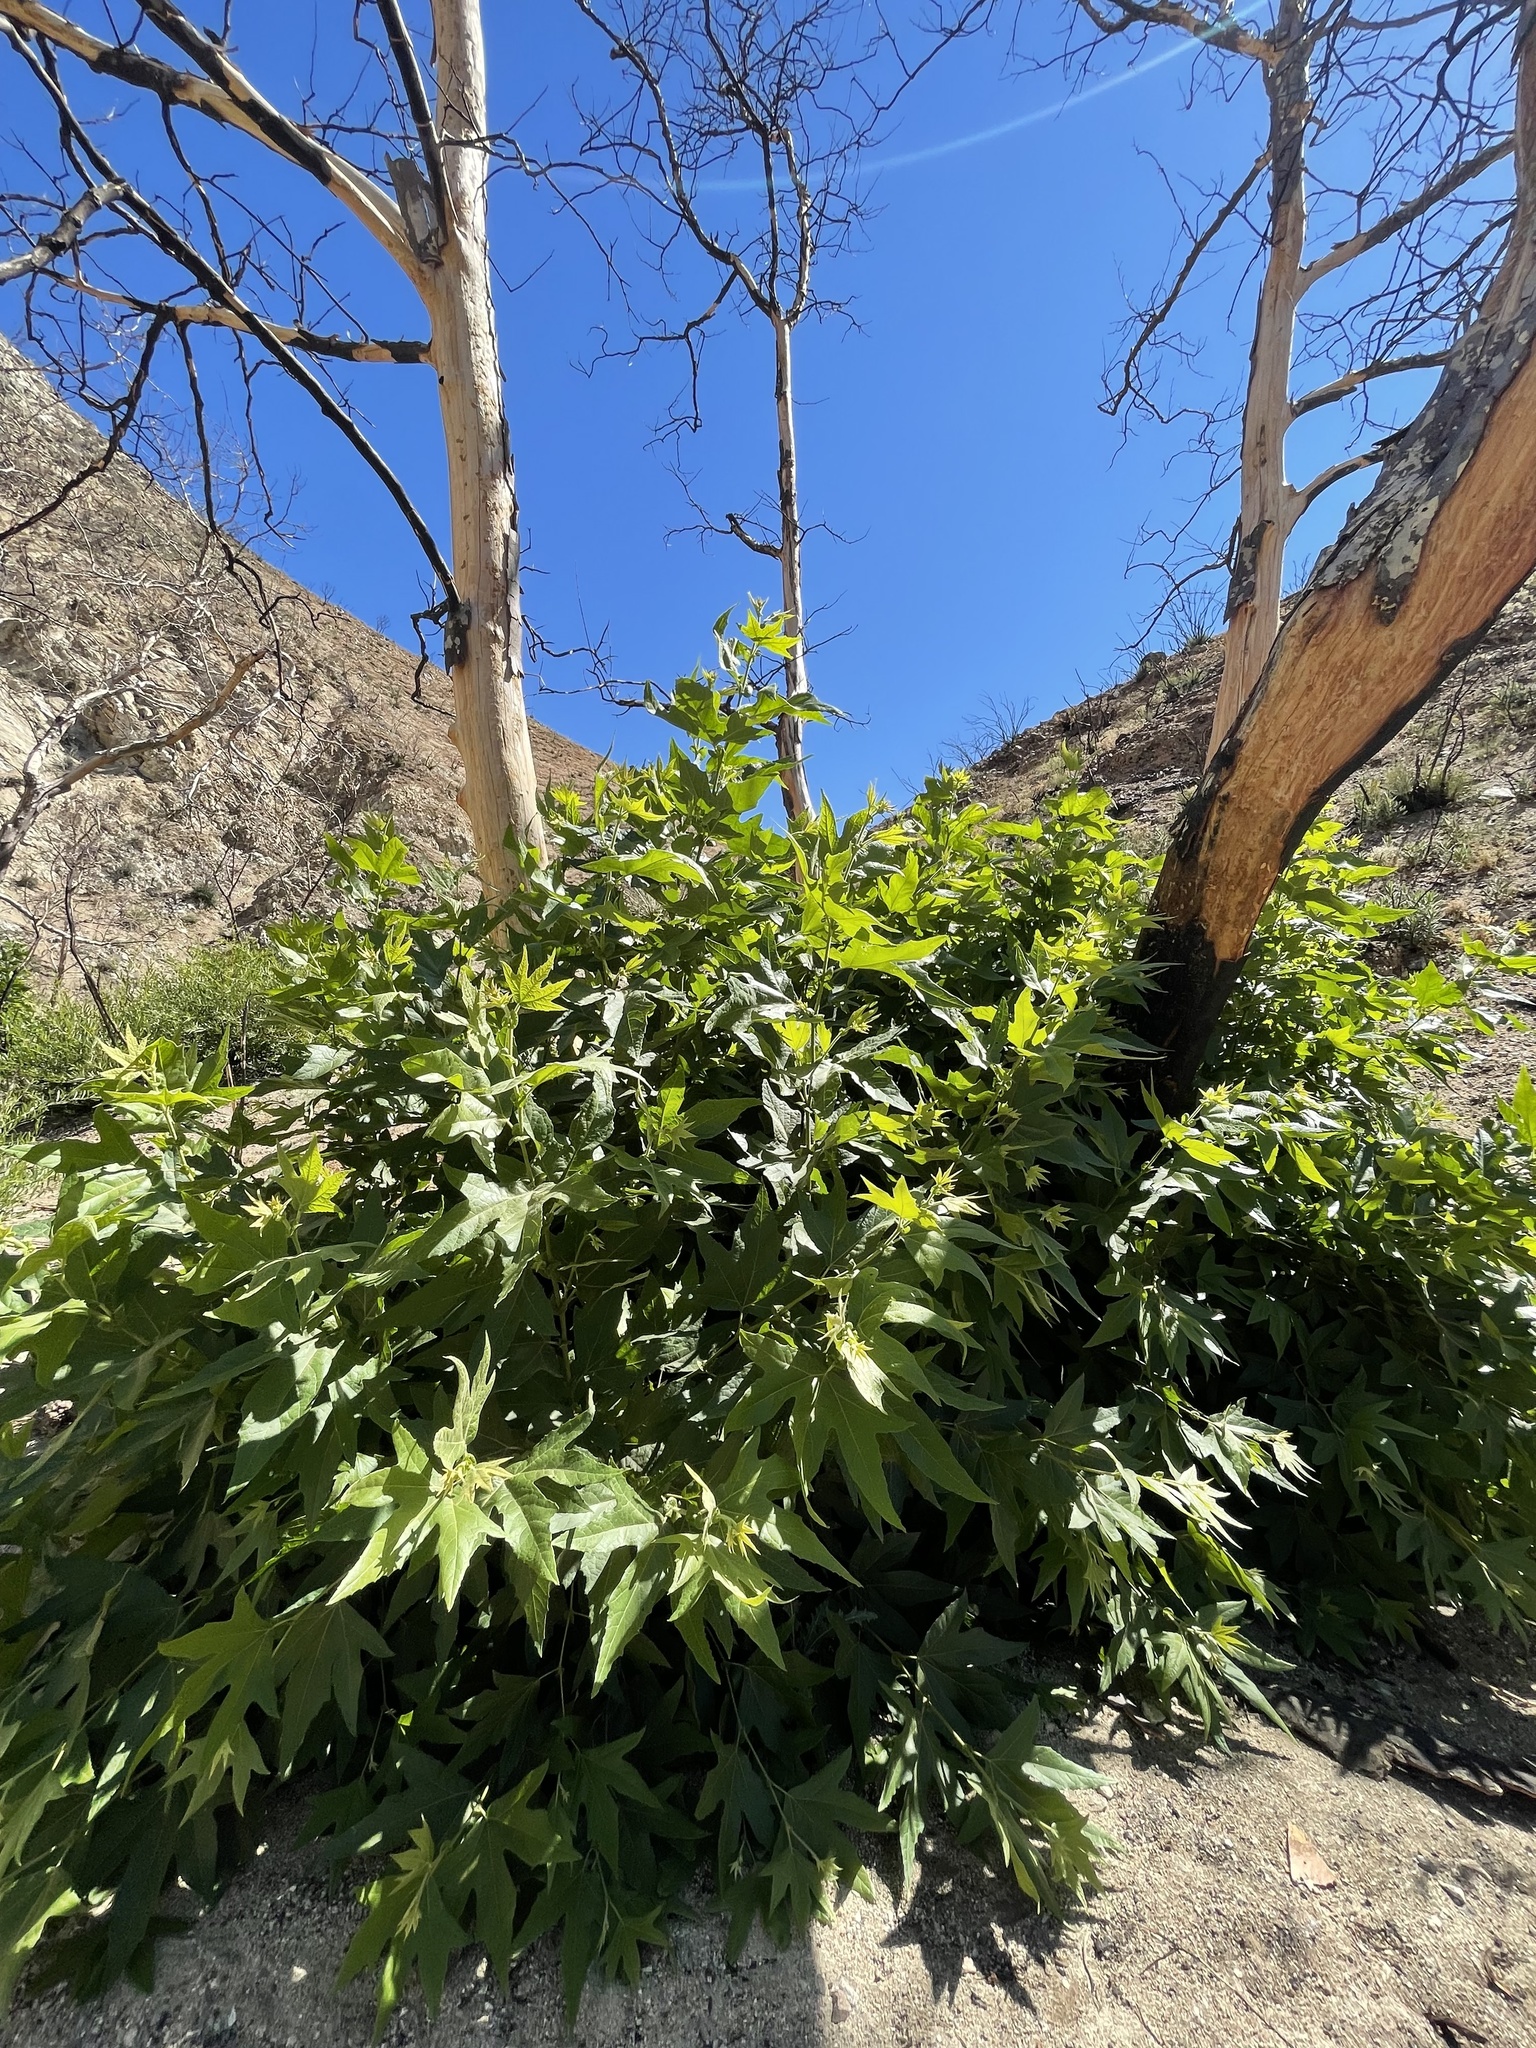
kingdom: Plantae
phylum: Tracheophyta
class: Magnoliopsida
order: Proteales
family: Platanaceae
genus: Platanus
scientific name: Platanus racemosa
